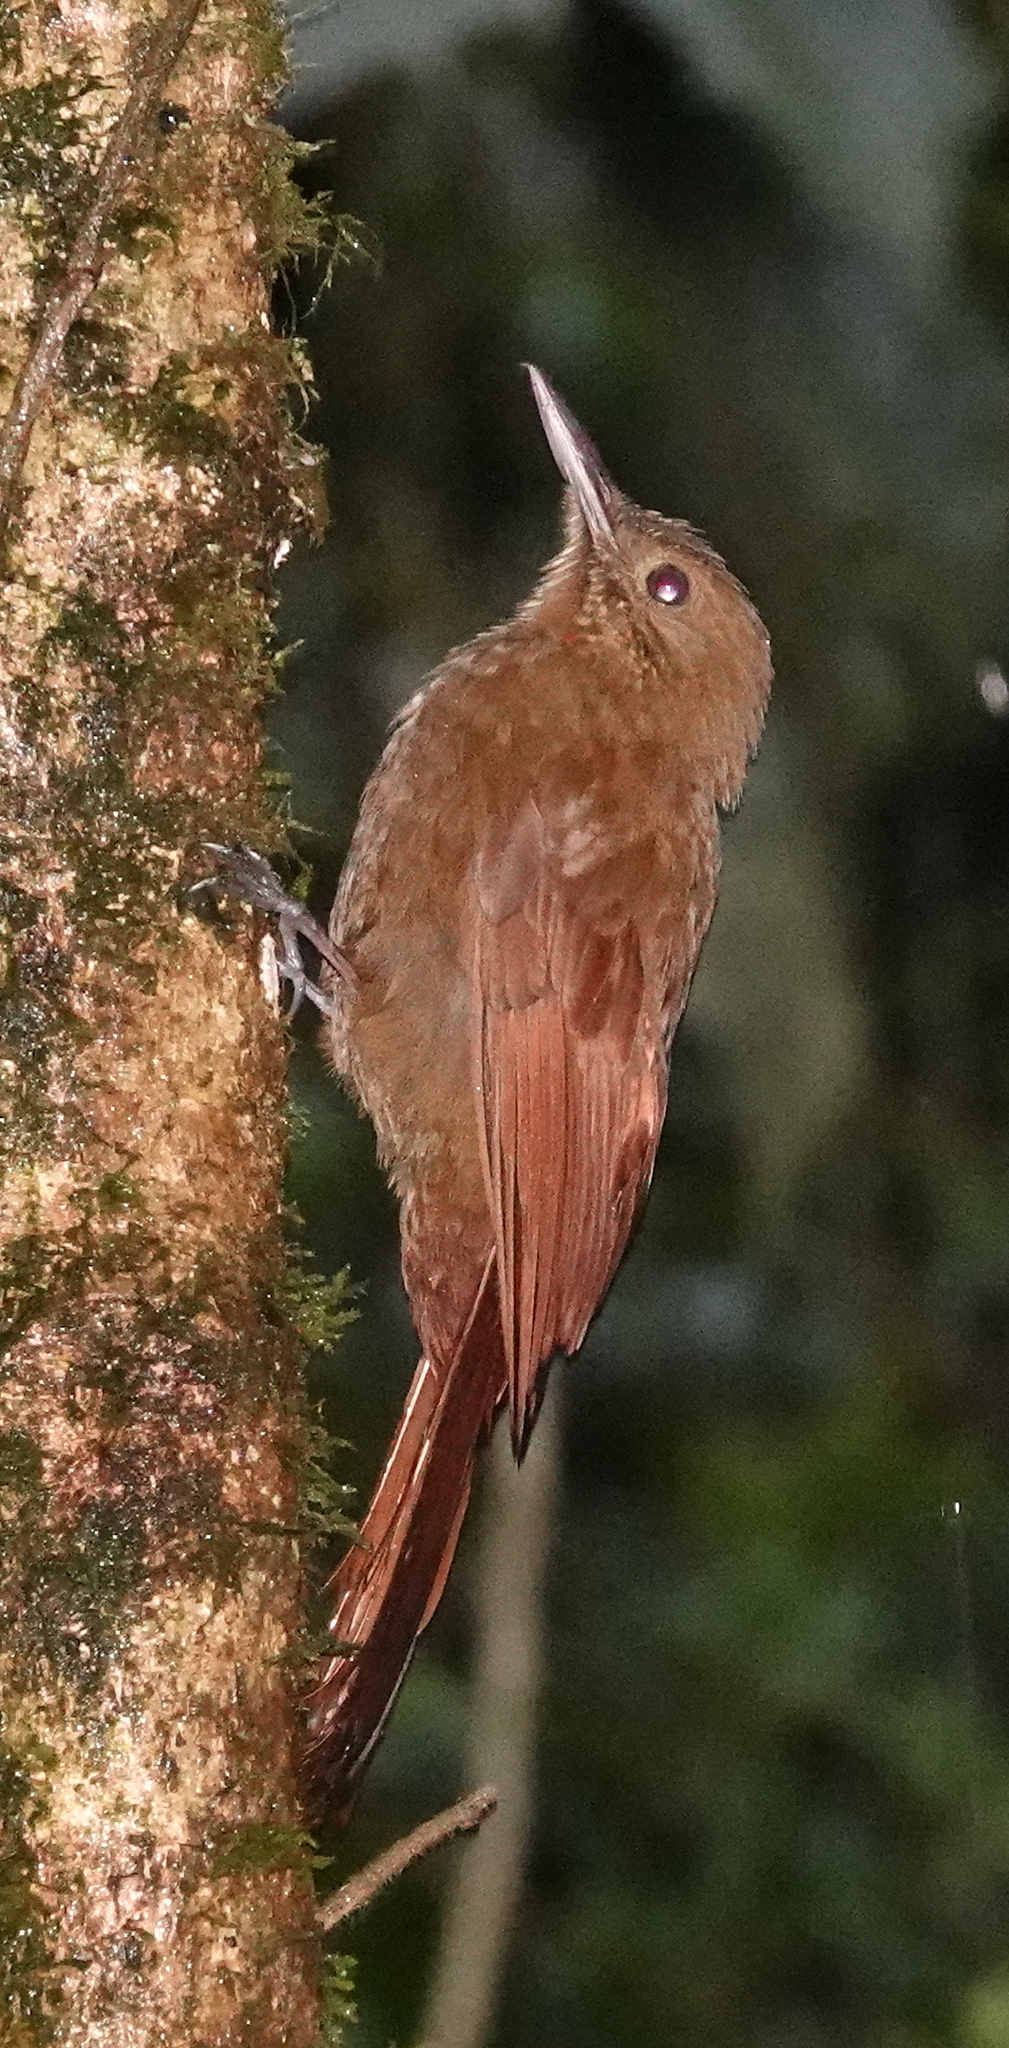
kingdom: Animalia
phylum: Chordata
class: Aves
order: Passeriformes
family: Furnariidae
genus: Dendrocincla
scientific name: Dendrocincla tyrannina
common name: Tyrannine woodcreeper
